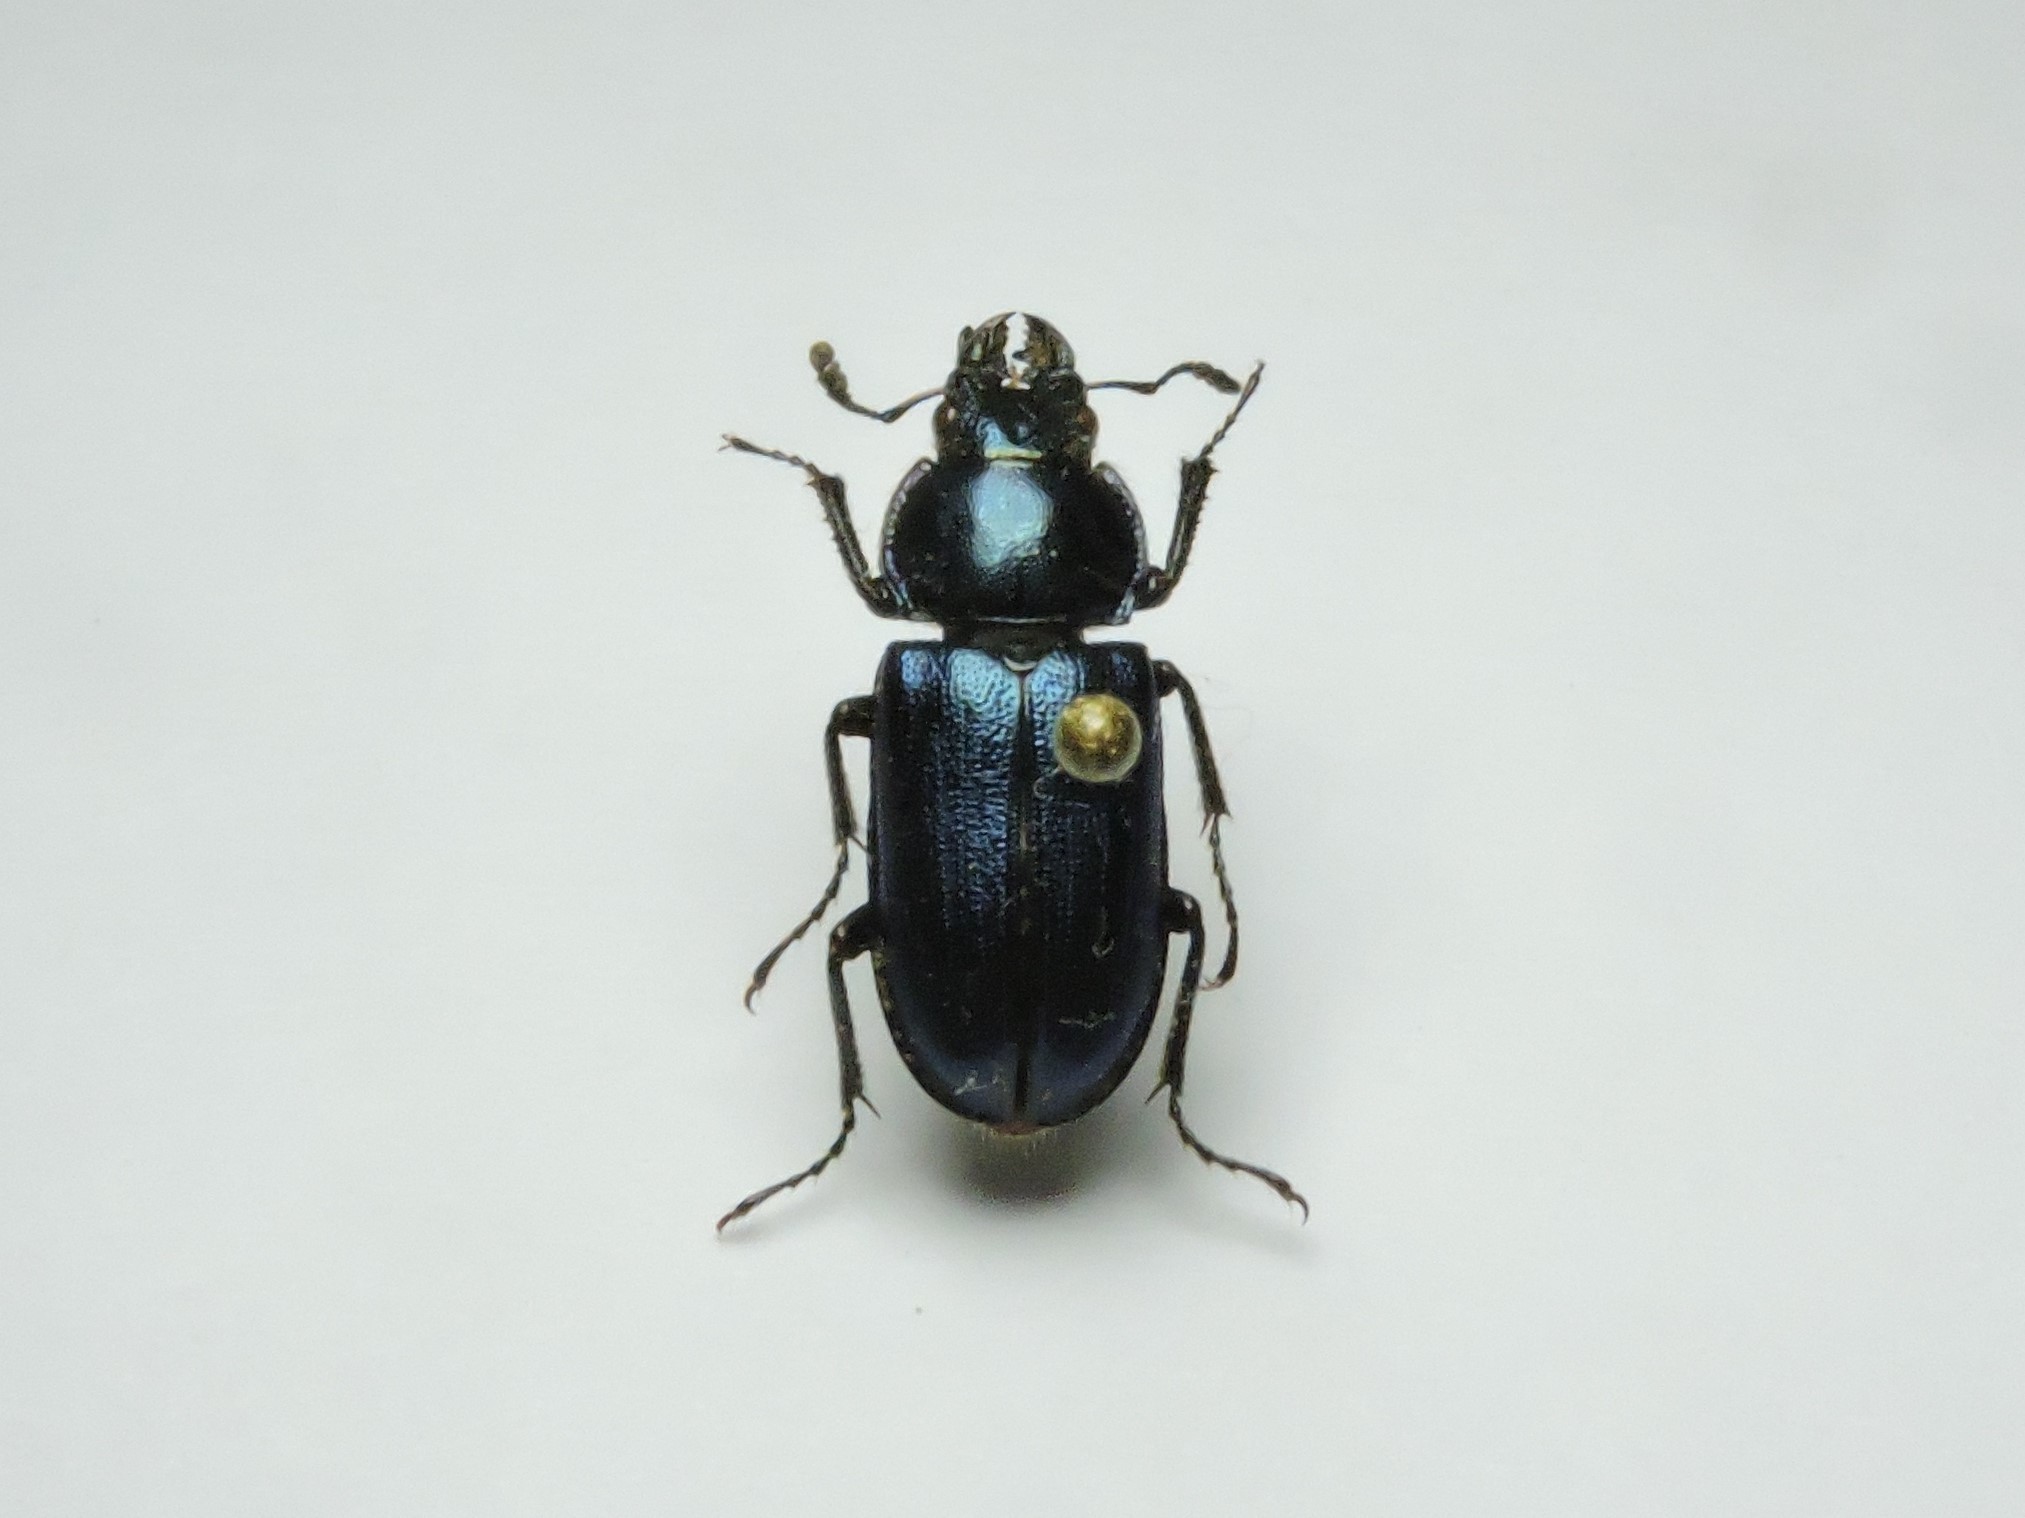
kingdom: Animalia
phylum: Arthropoda
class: Insecta
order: Coleoptera
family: Lucanidae
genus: Platycerus
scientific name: Platycerus caraboides
